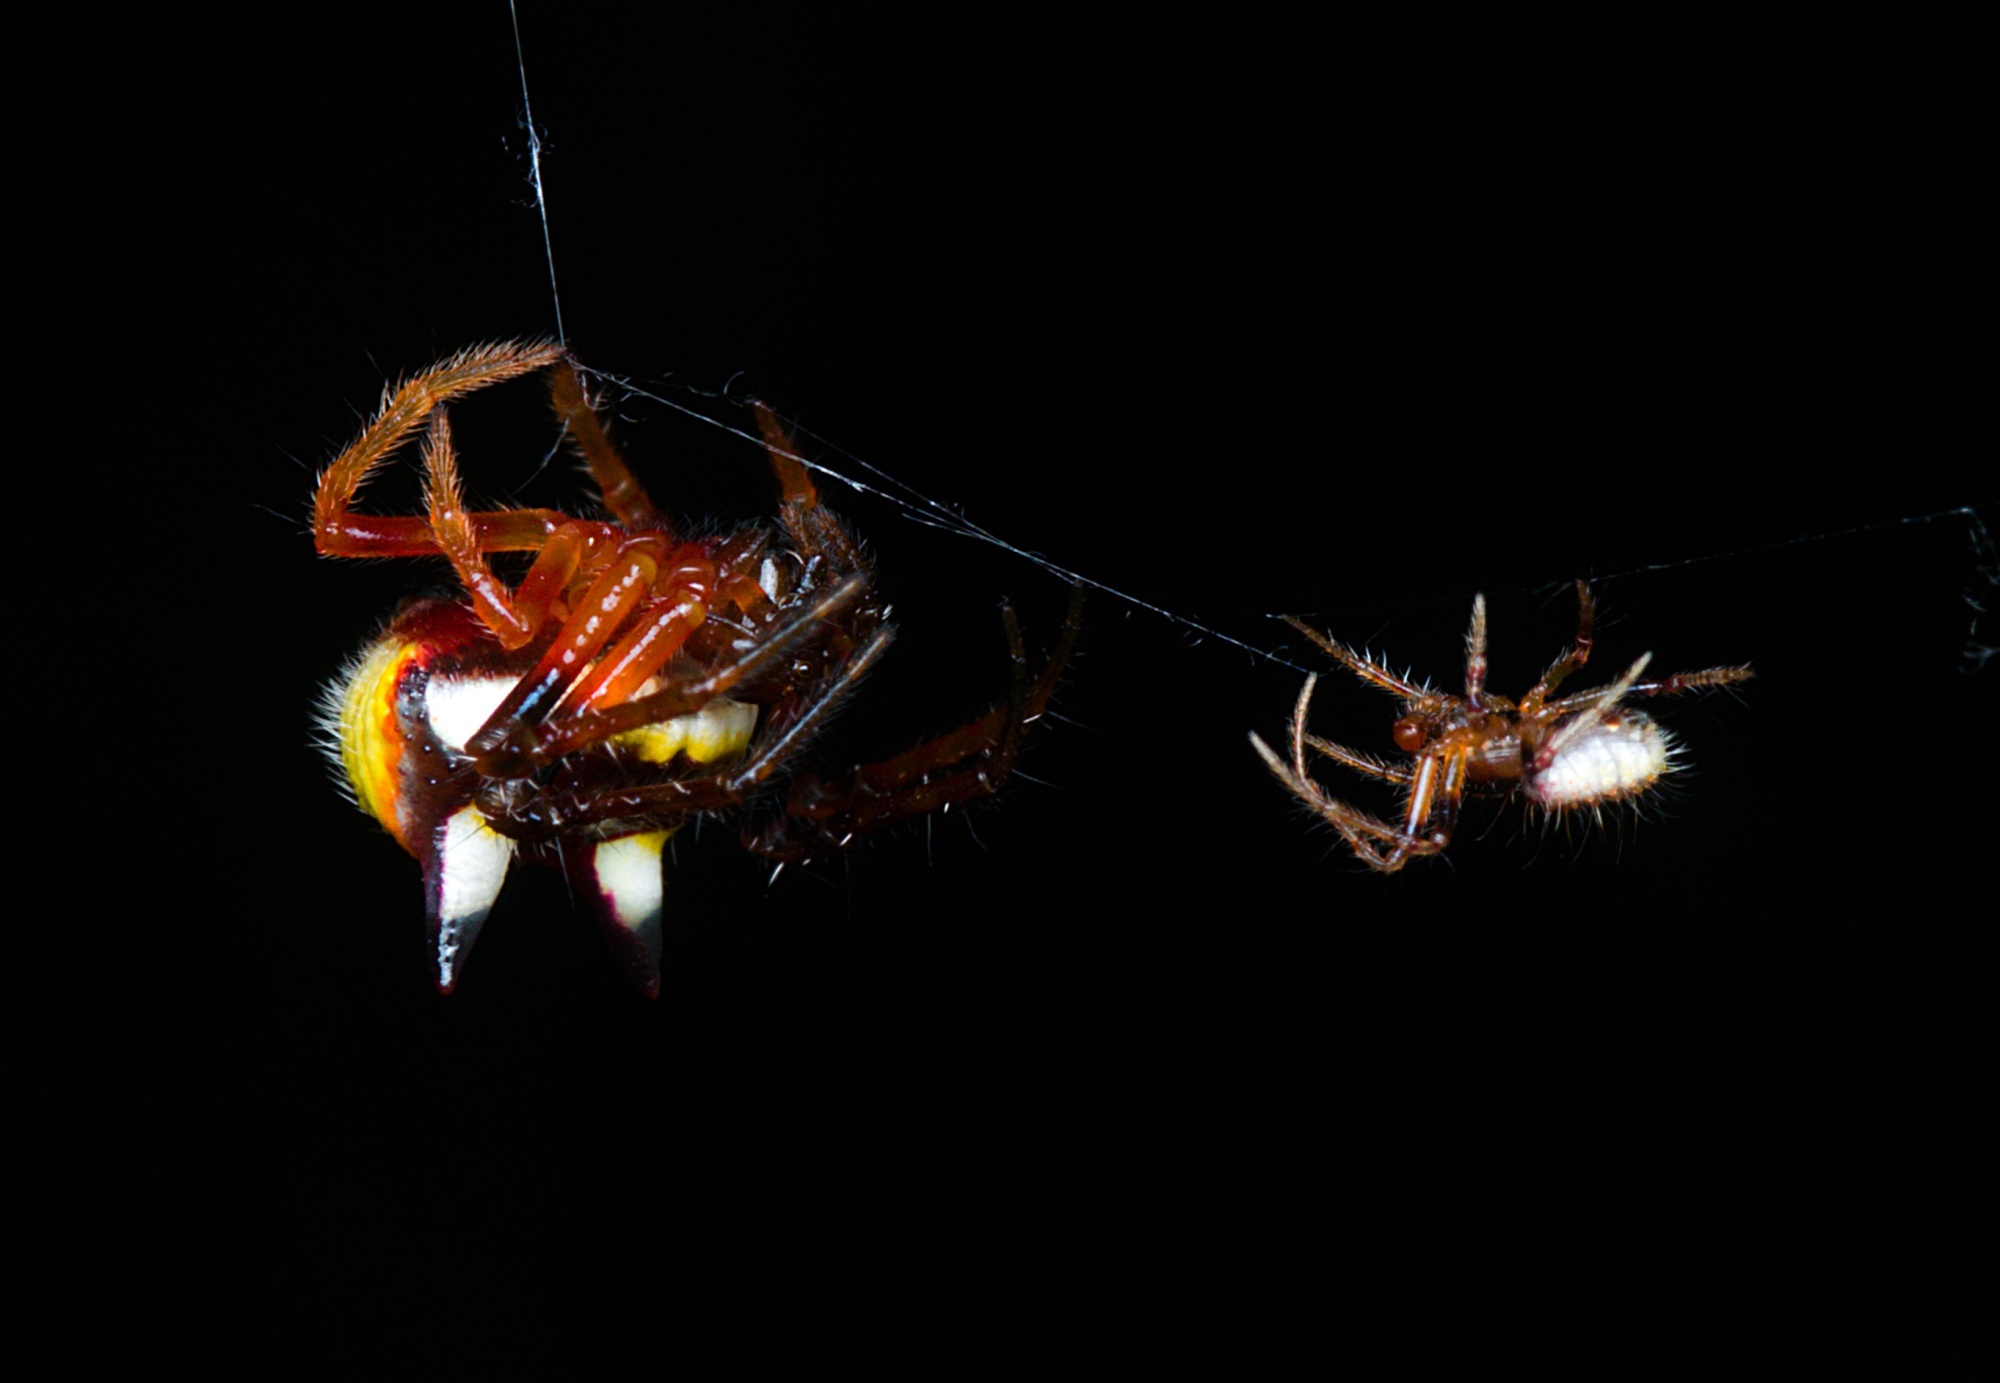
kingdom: Animalia
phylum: Arthropoda
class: Arachnida
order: Araneae
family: Araneidae
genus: Poecilopachys
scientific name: Poecilopachys australasia
